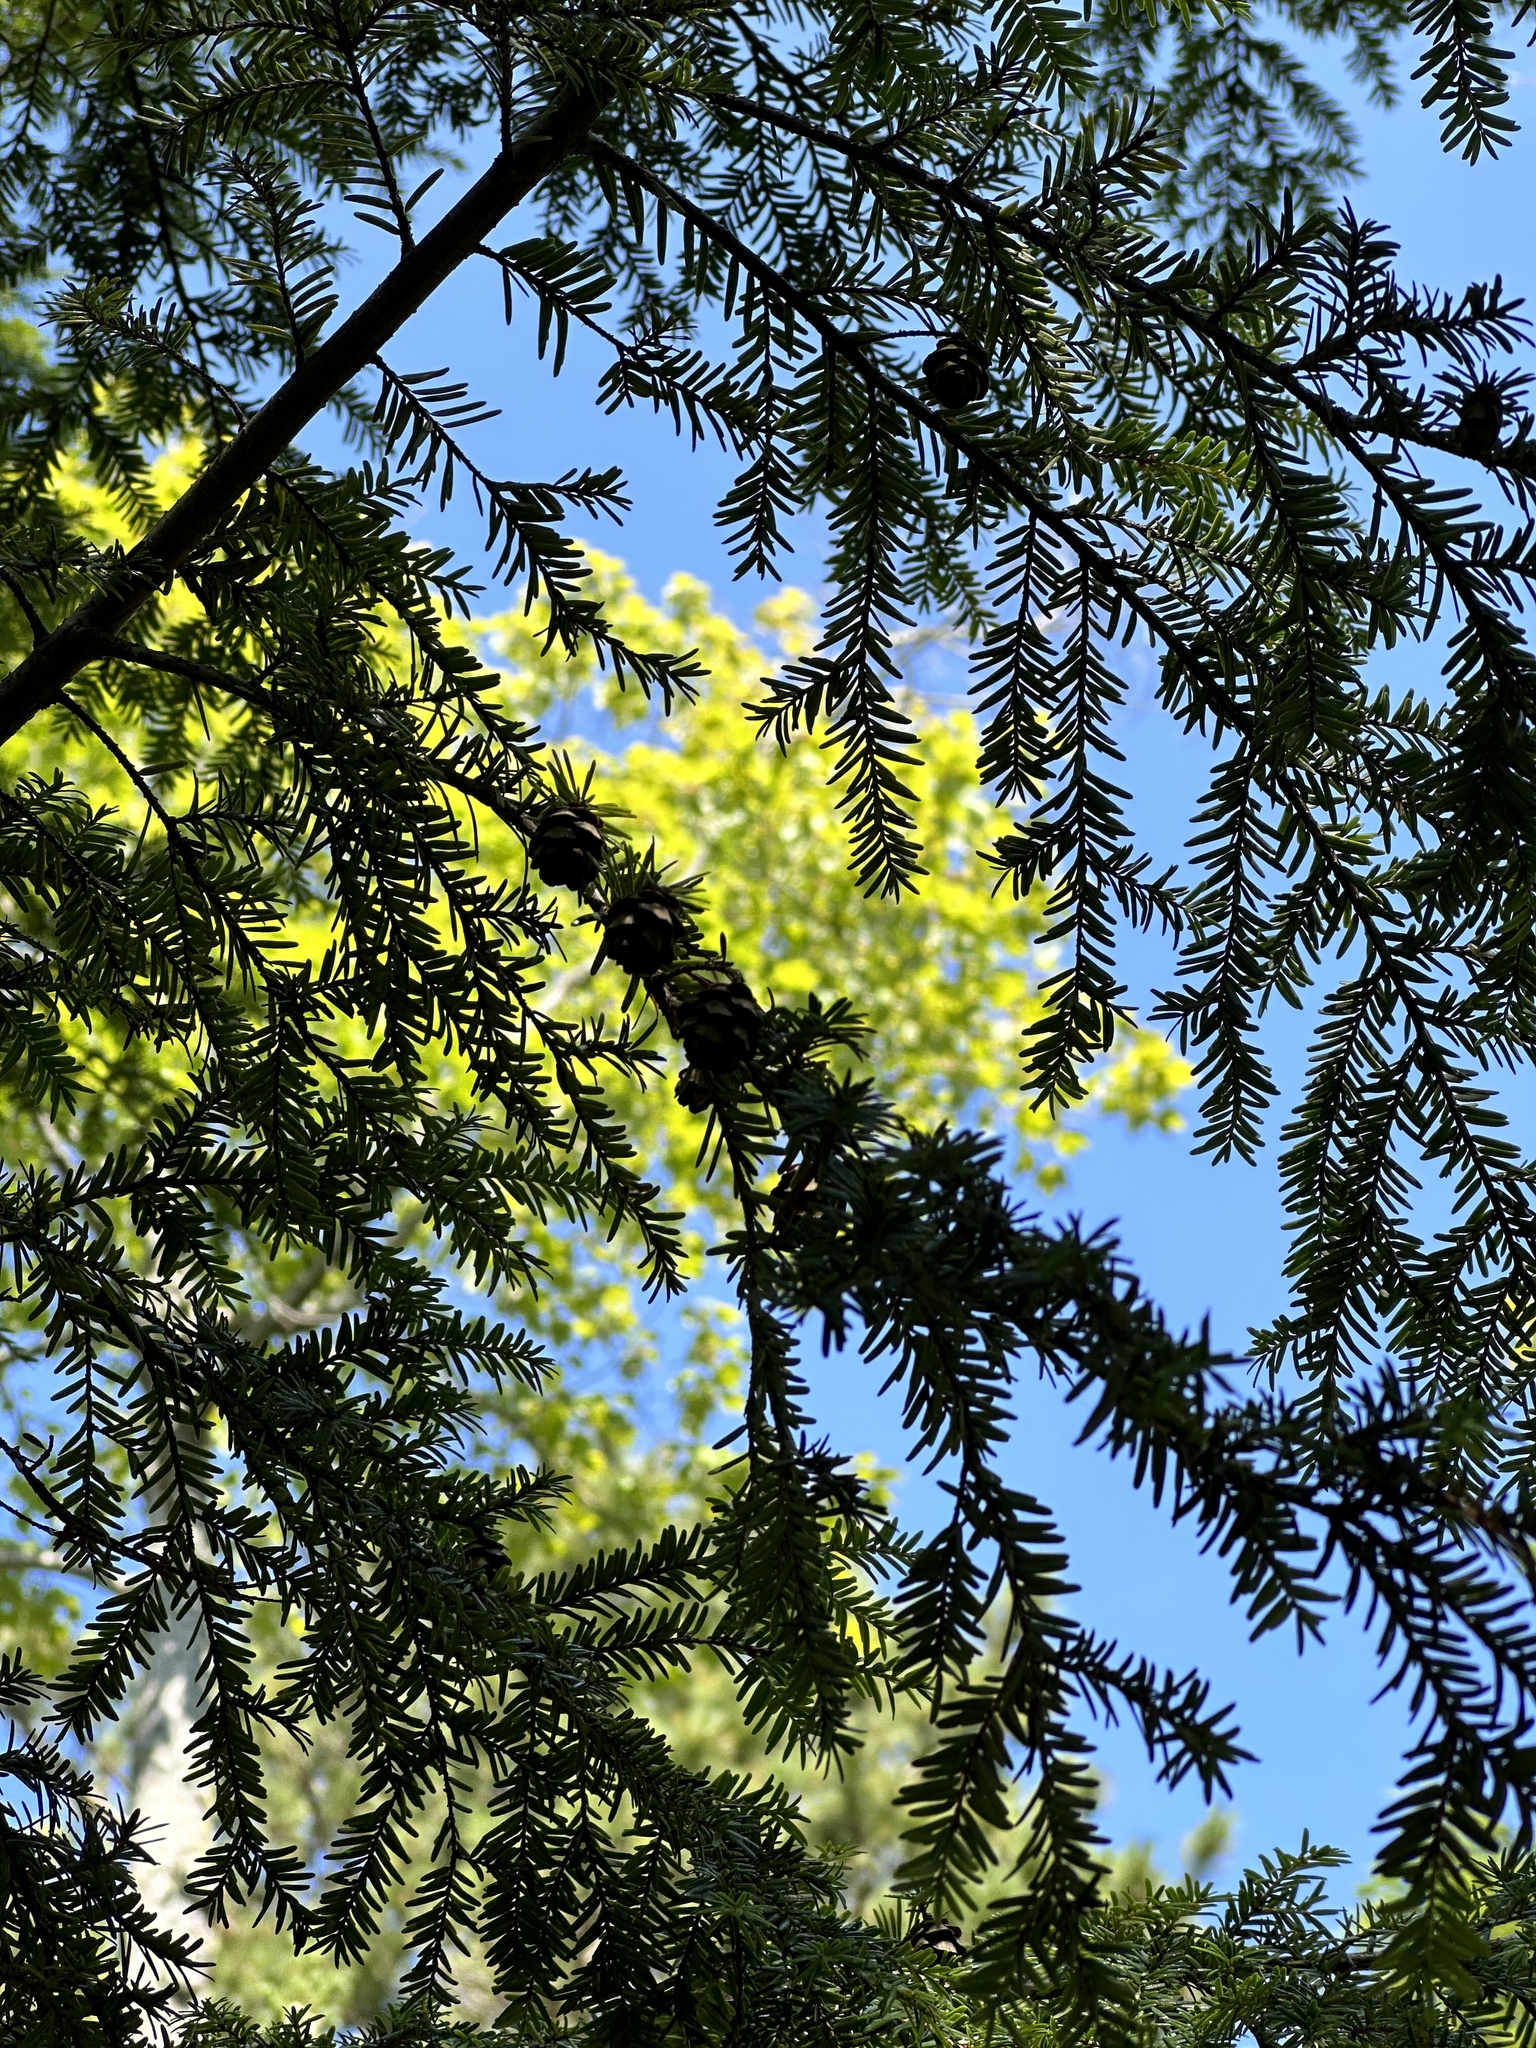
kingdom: Plantae
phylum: Tracheophyta
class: Pinopsida
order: Pinales
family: Pinaceae
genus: Tsuga
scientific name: Tsuga canadensis
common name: Eastern hemlock
